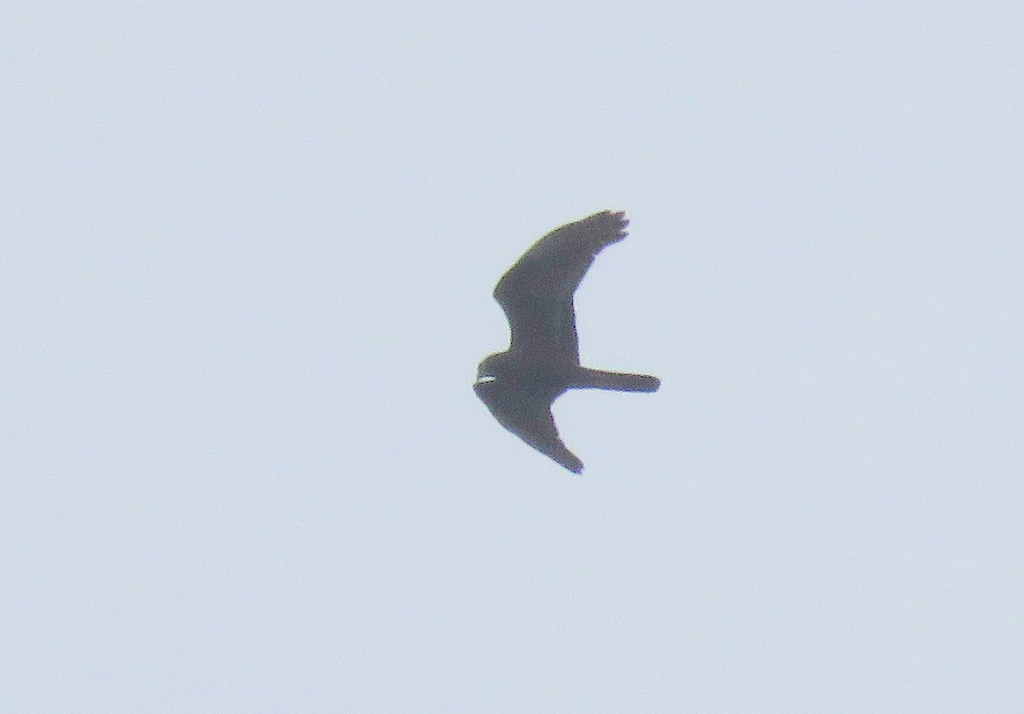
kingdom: Animalia
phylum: Chordata
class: Aves
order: Accipitriformes
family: Accipitridae
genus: Circus
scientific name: Circus buffoni
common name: Long-winged harrier
